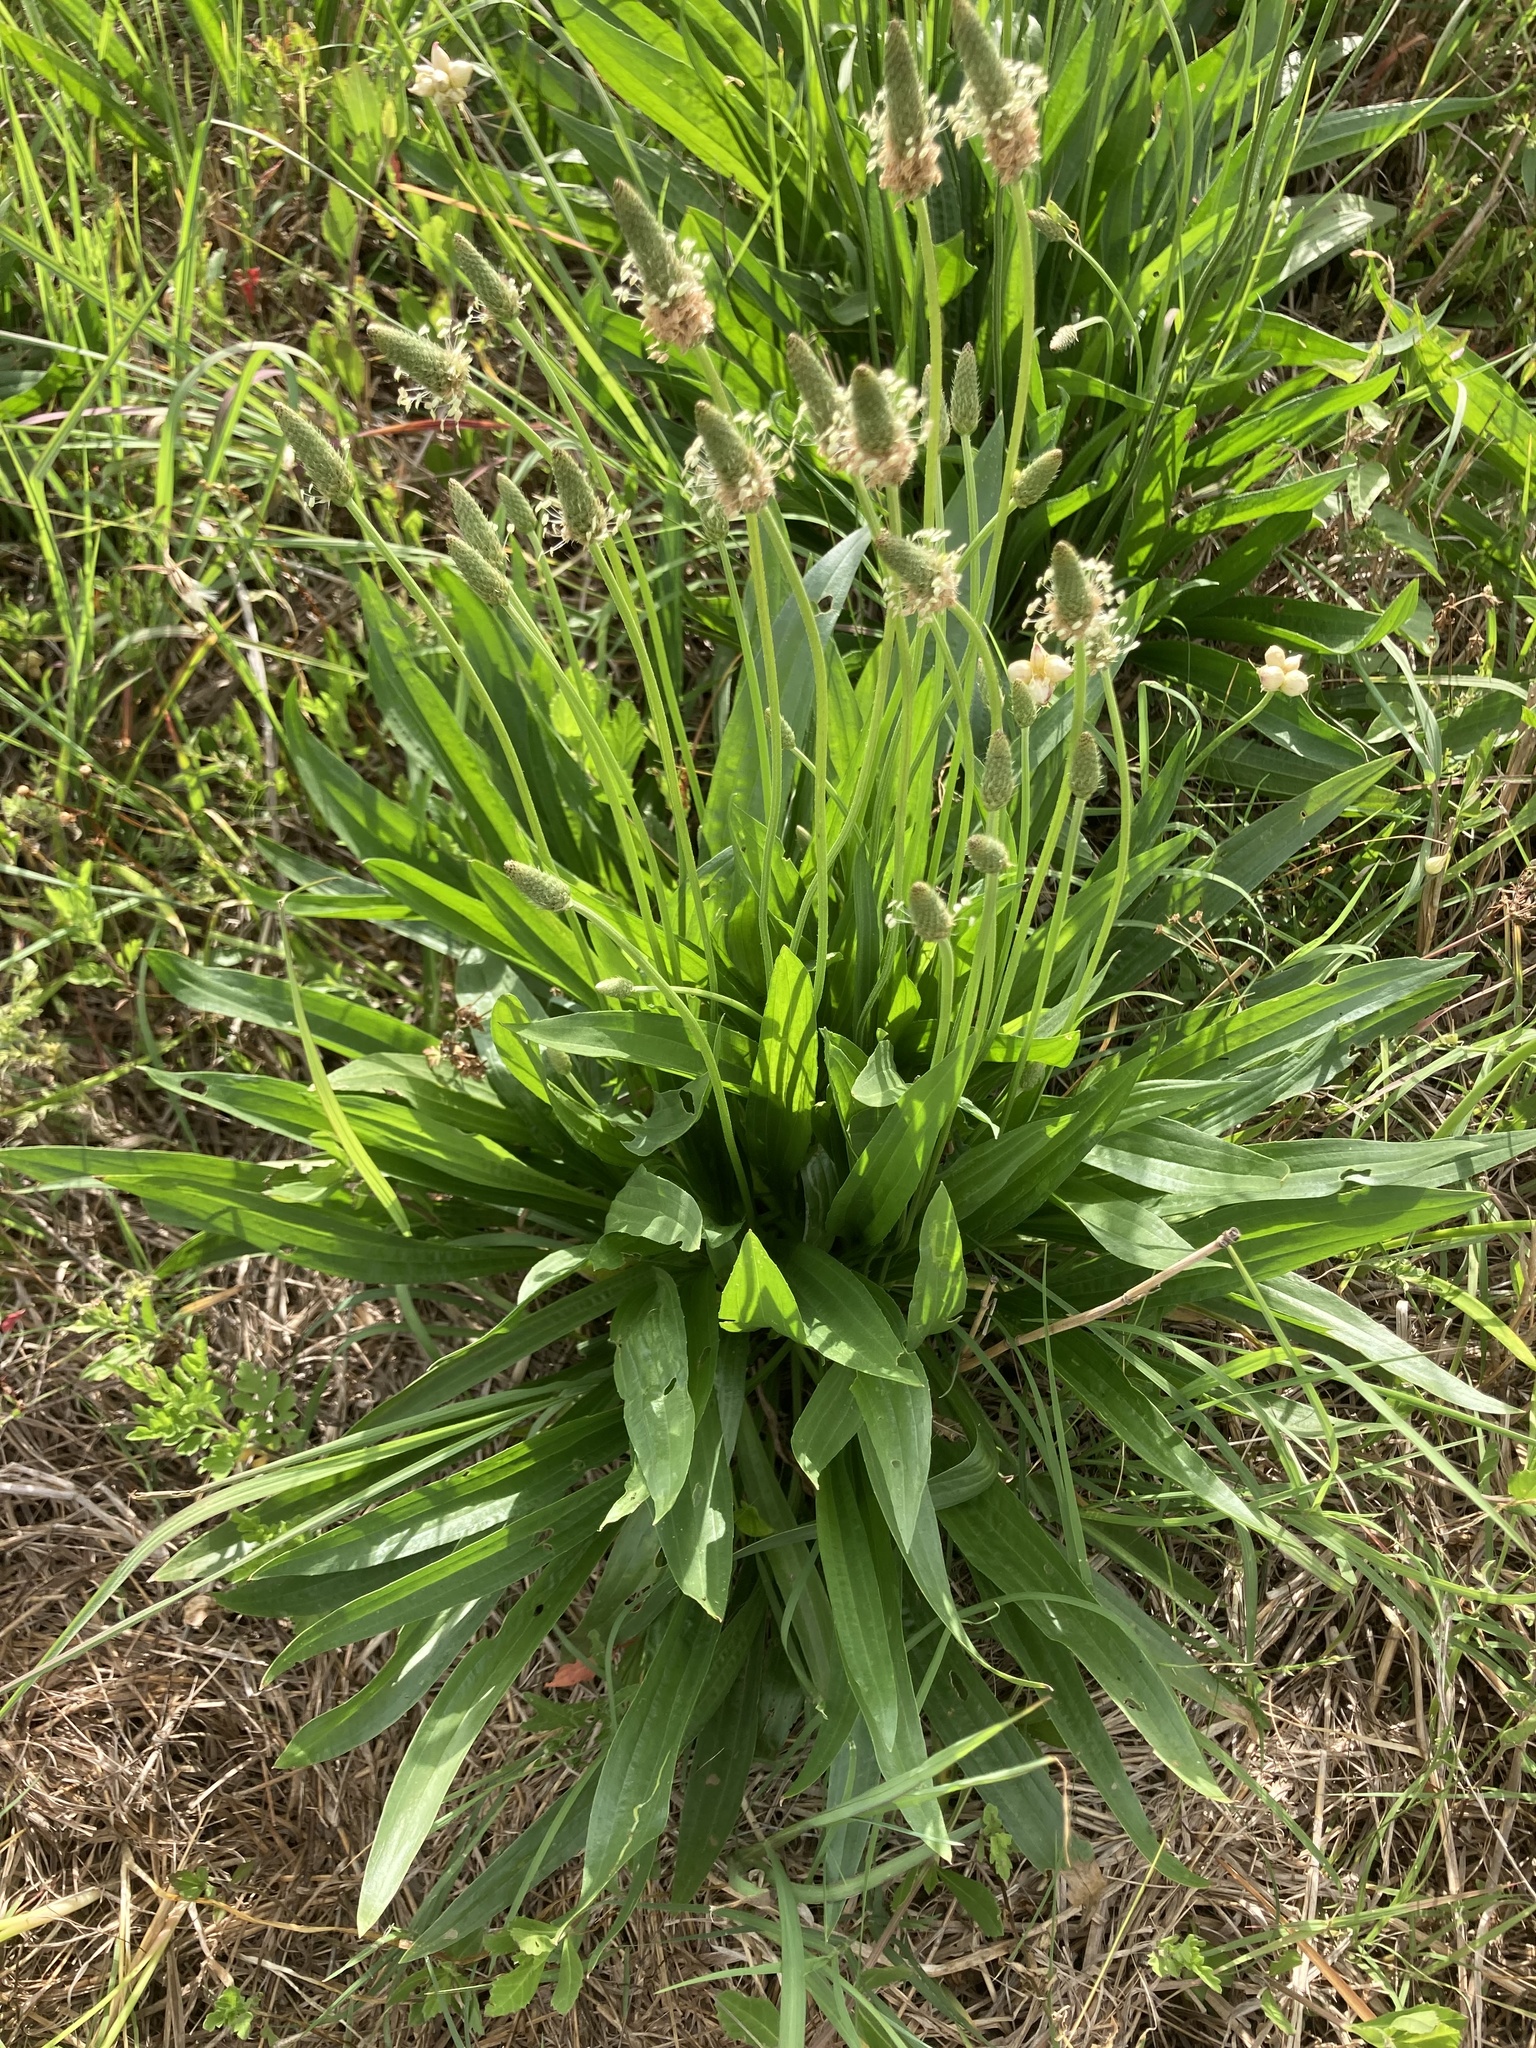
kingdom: Plantae
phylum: Tracheophyta
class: Magnoliopsida
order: Lamiales
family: Plantaginaceae
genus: Plantago
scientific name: Plantago lanceolata
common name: Ribwort plantain
